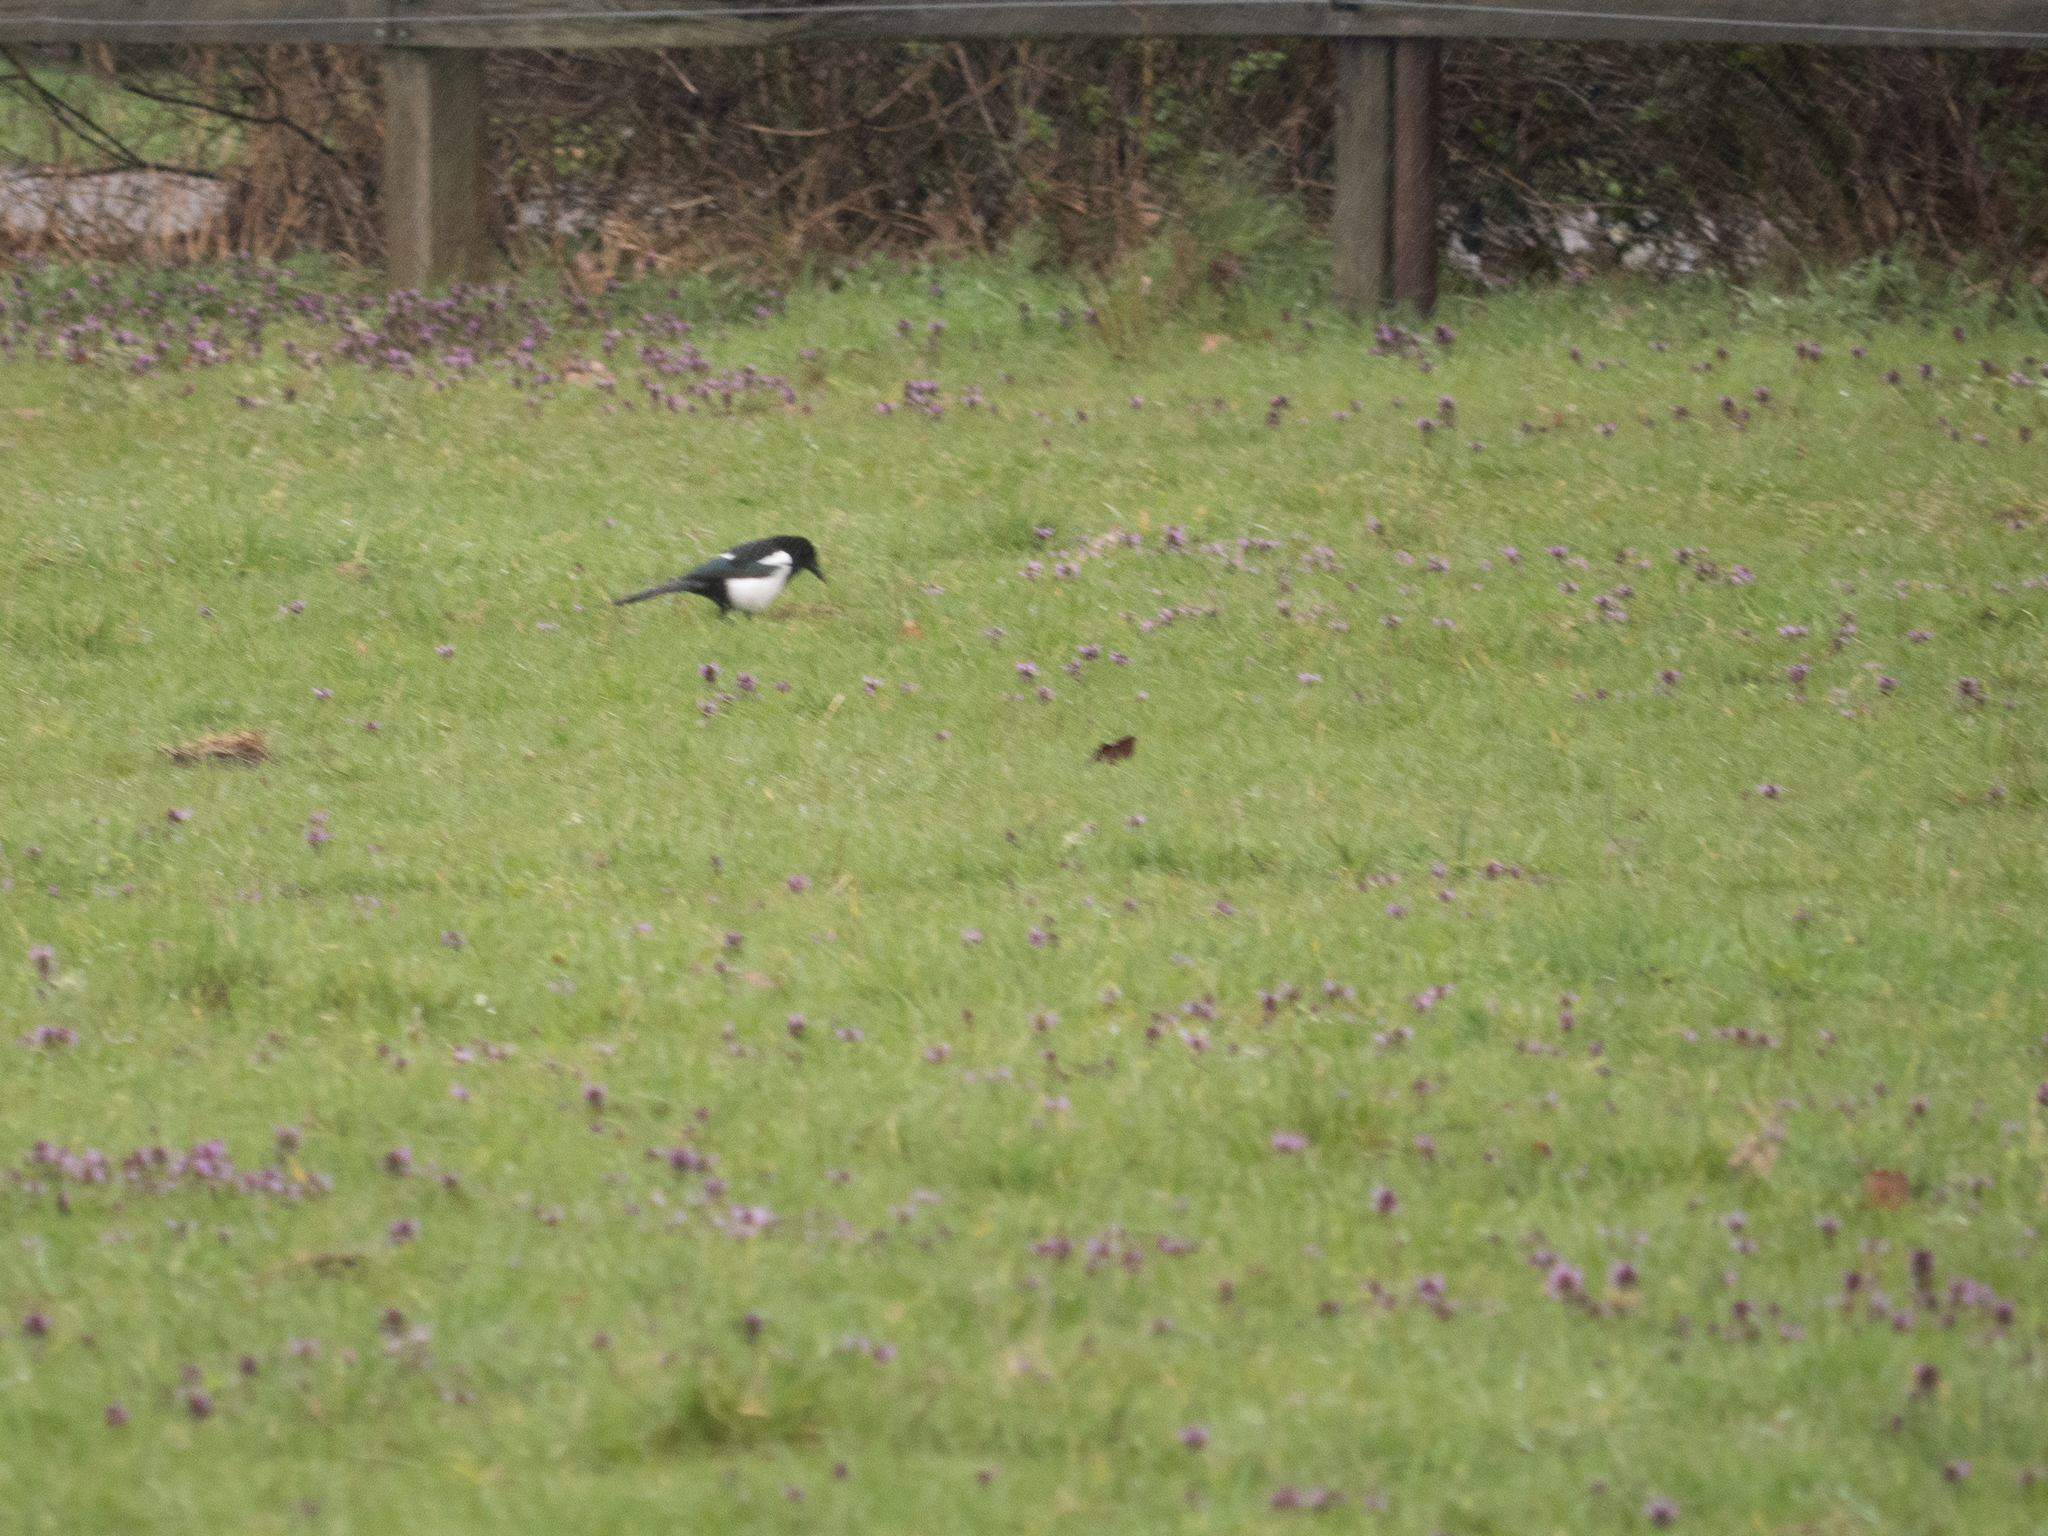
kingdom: Animalia
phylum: Chordata
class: Aves
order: Passeriformes
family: Corvidae
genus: Pica
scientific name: Pica pica
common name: Eurasian magpie
